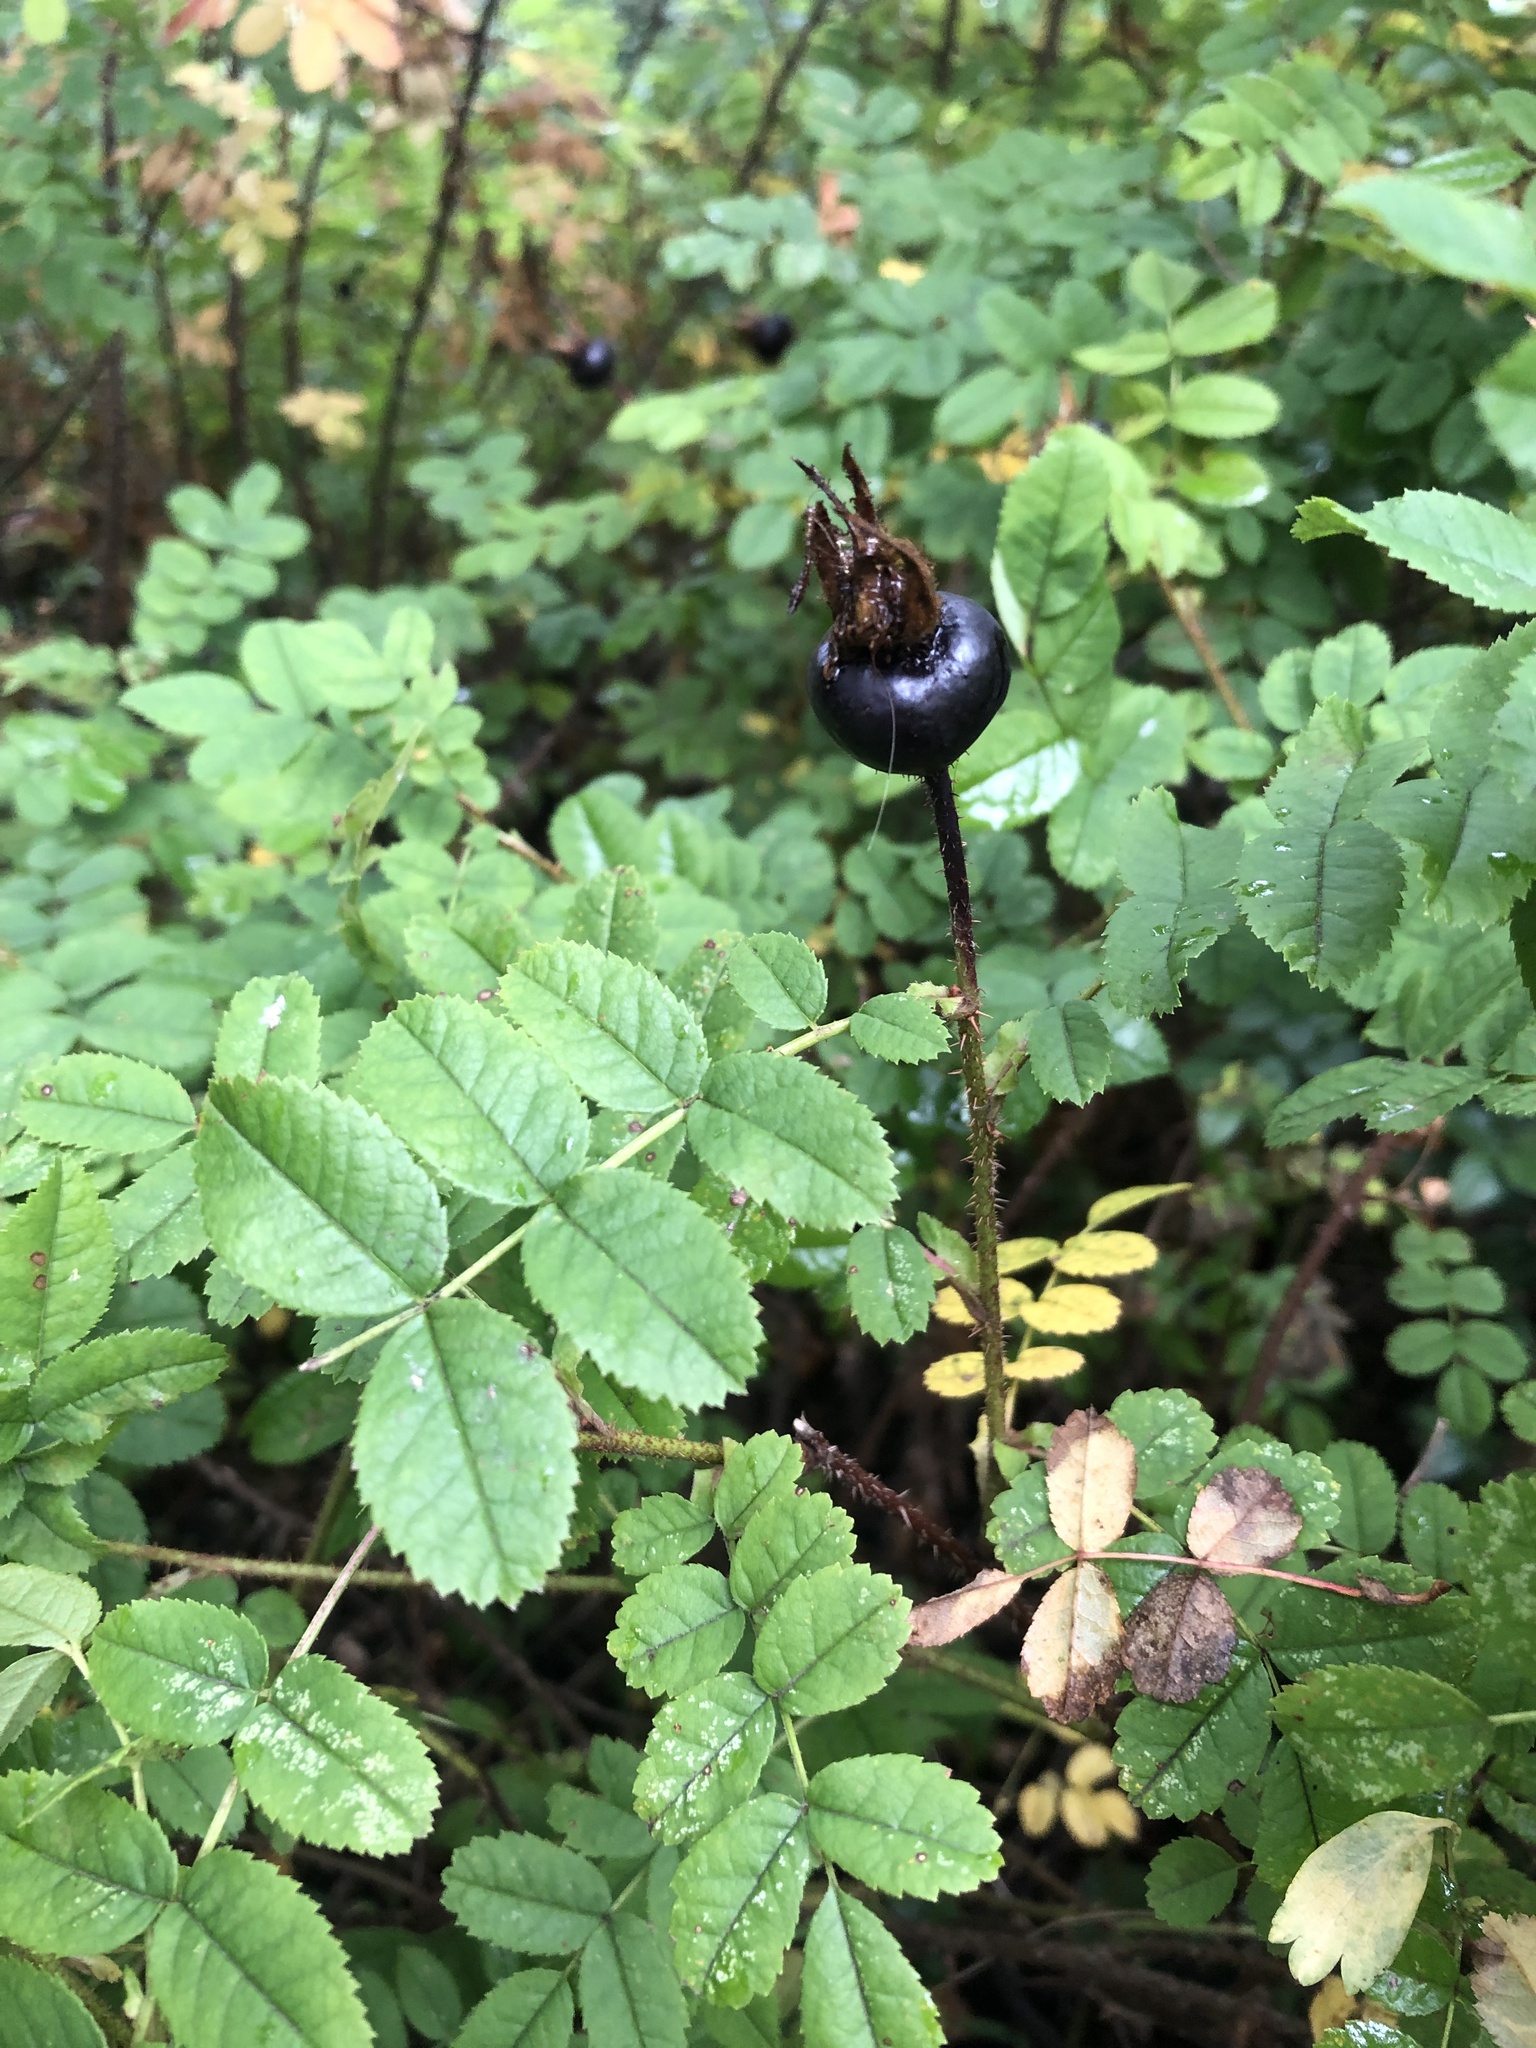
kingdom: Plantae
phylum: Tracheophyta
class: Magnoliopsida
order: Rosales
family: Rosaceae
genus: Rosa
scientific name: Rosa spinosissima
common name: Burnet rose
